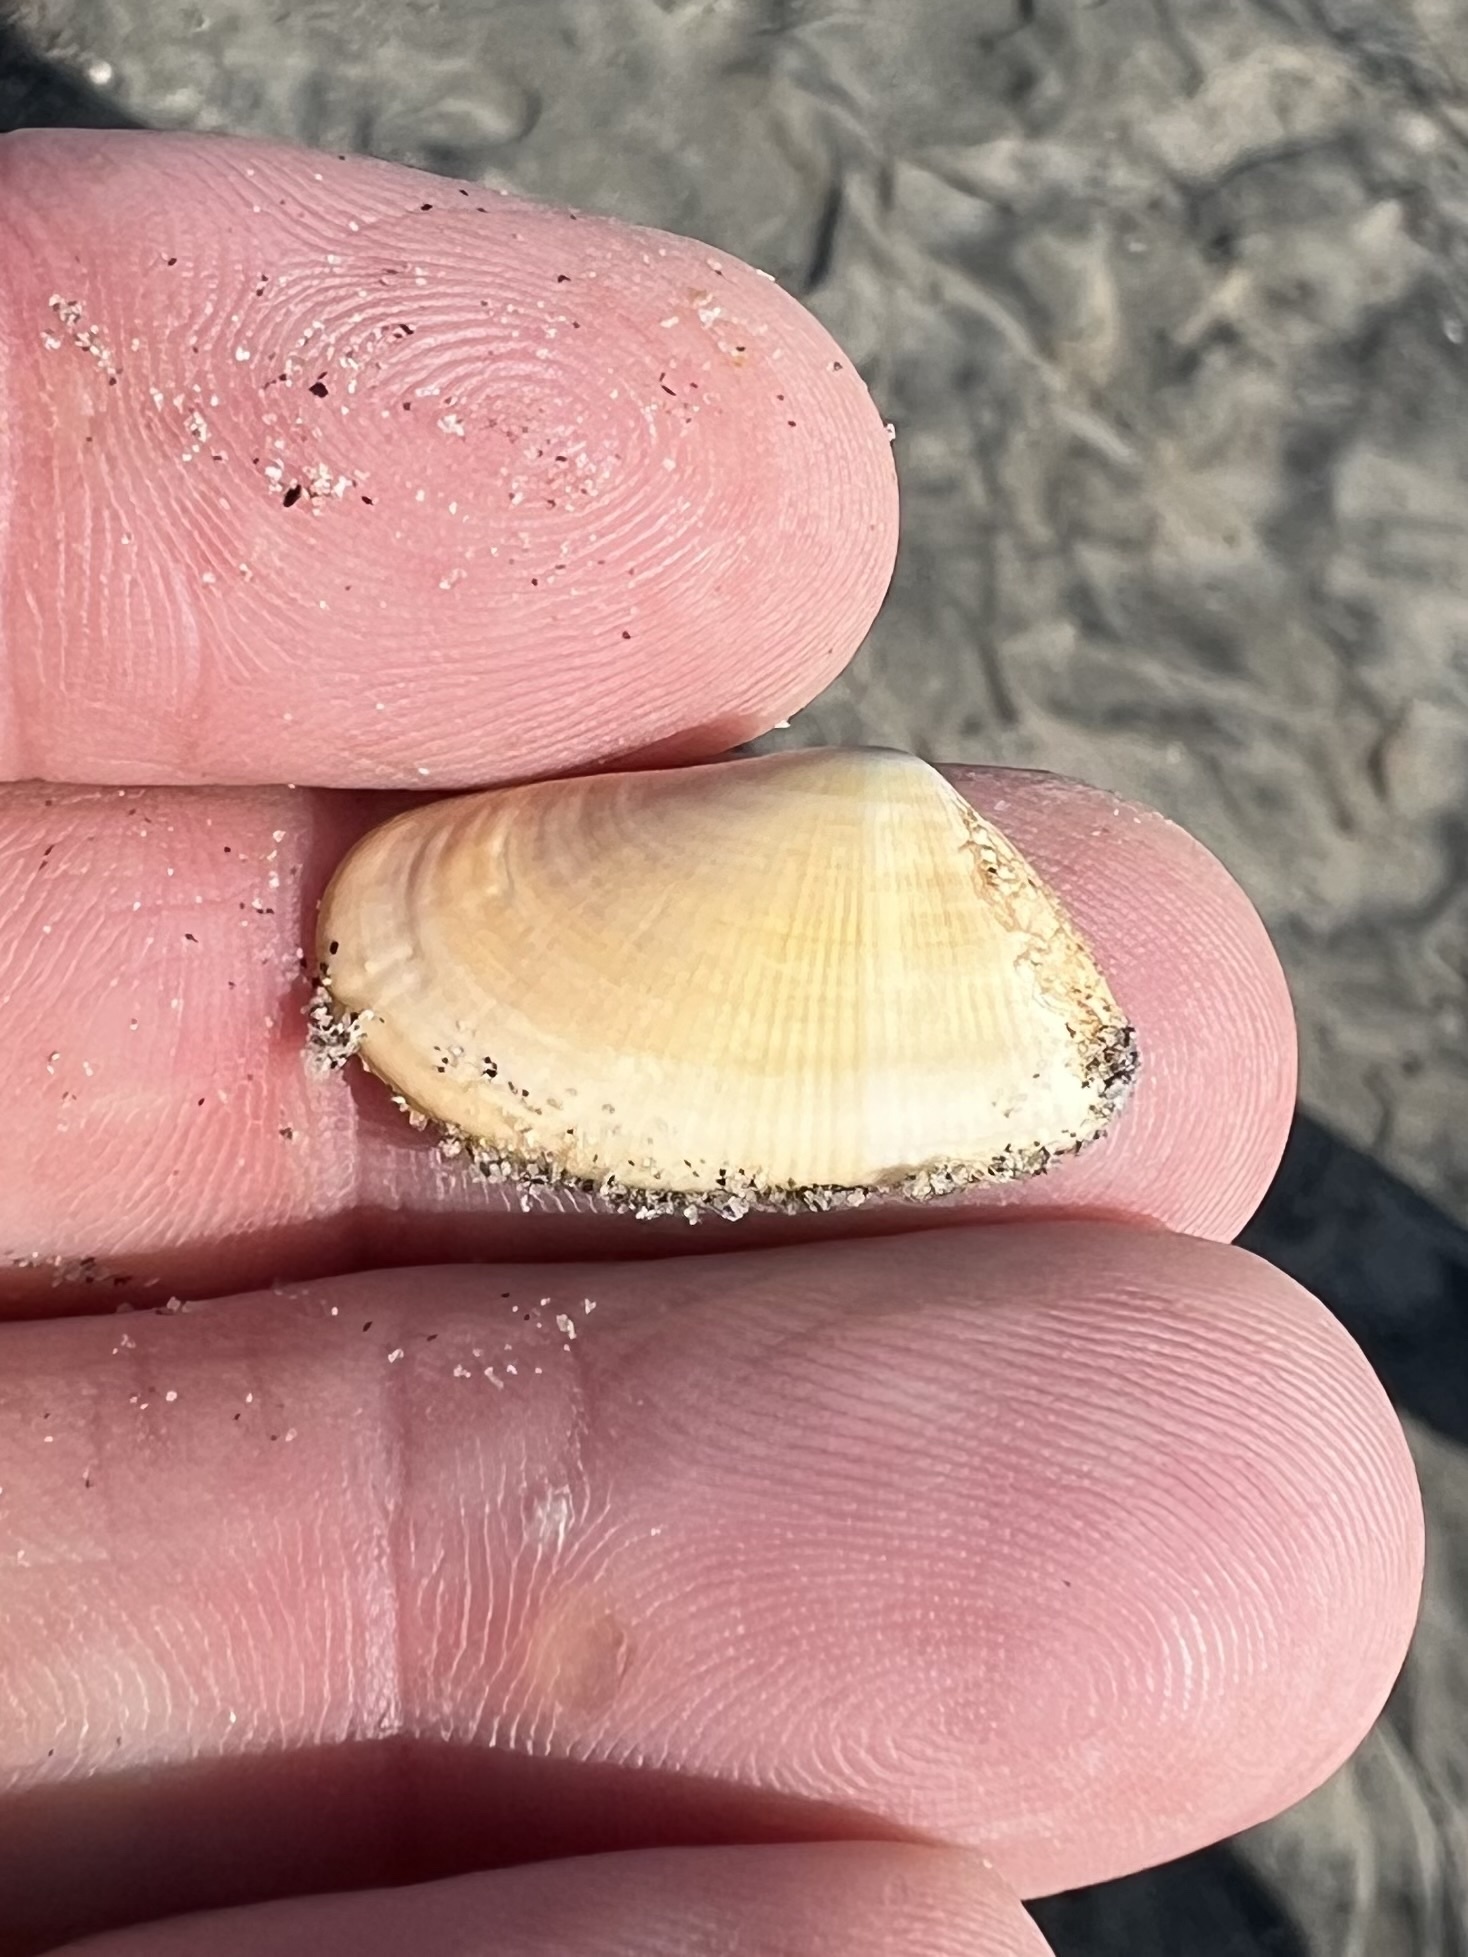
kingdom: Animalia
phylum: Mollusca
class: Bivalvia
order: Cardiida
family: Donacidae
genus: Donax
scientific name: Donax gouldii
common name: Gould beanclam
